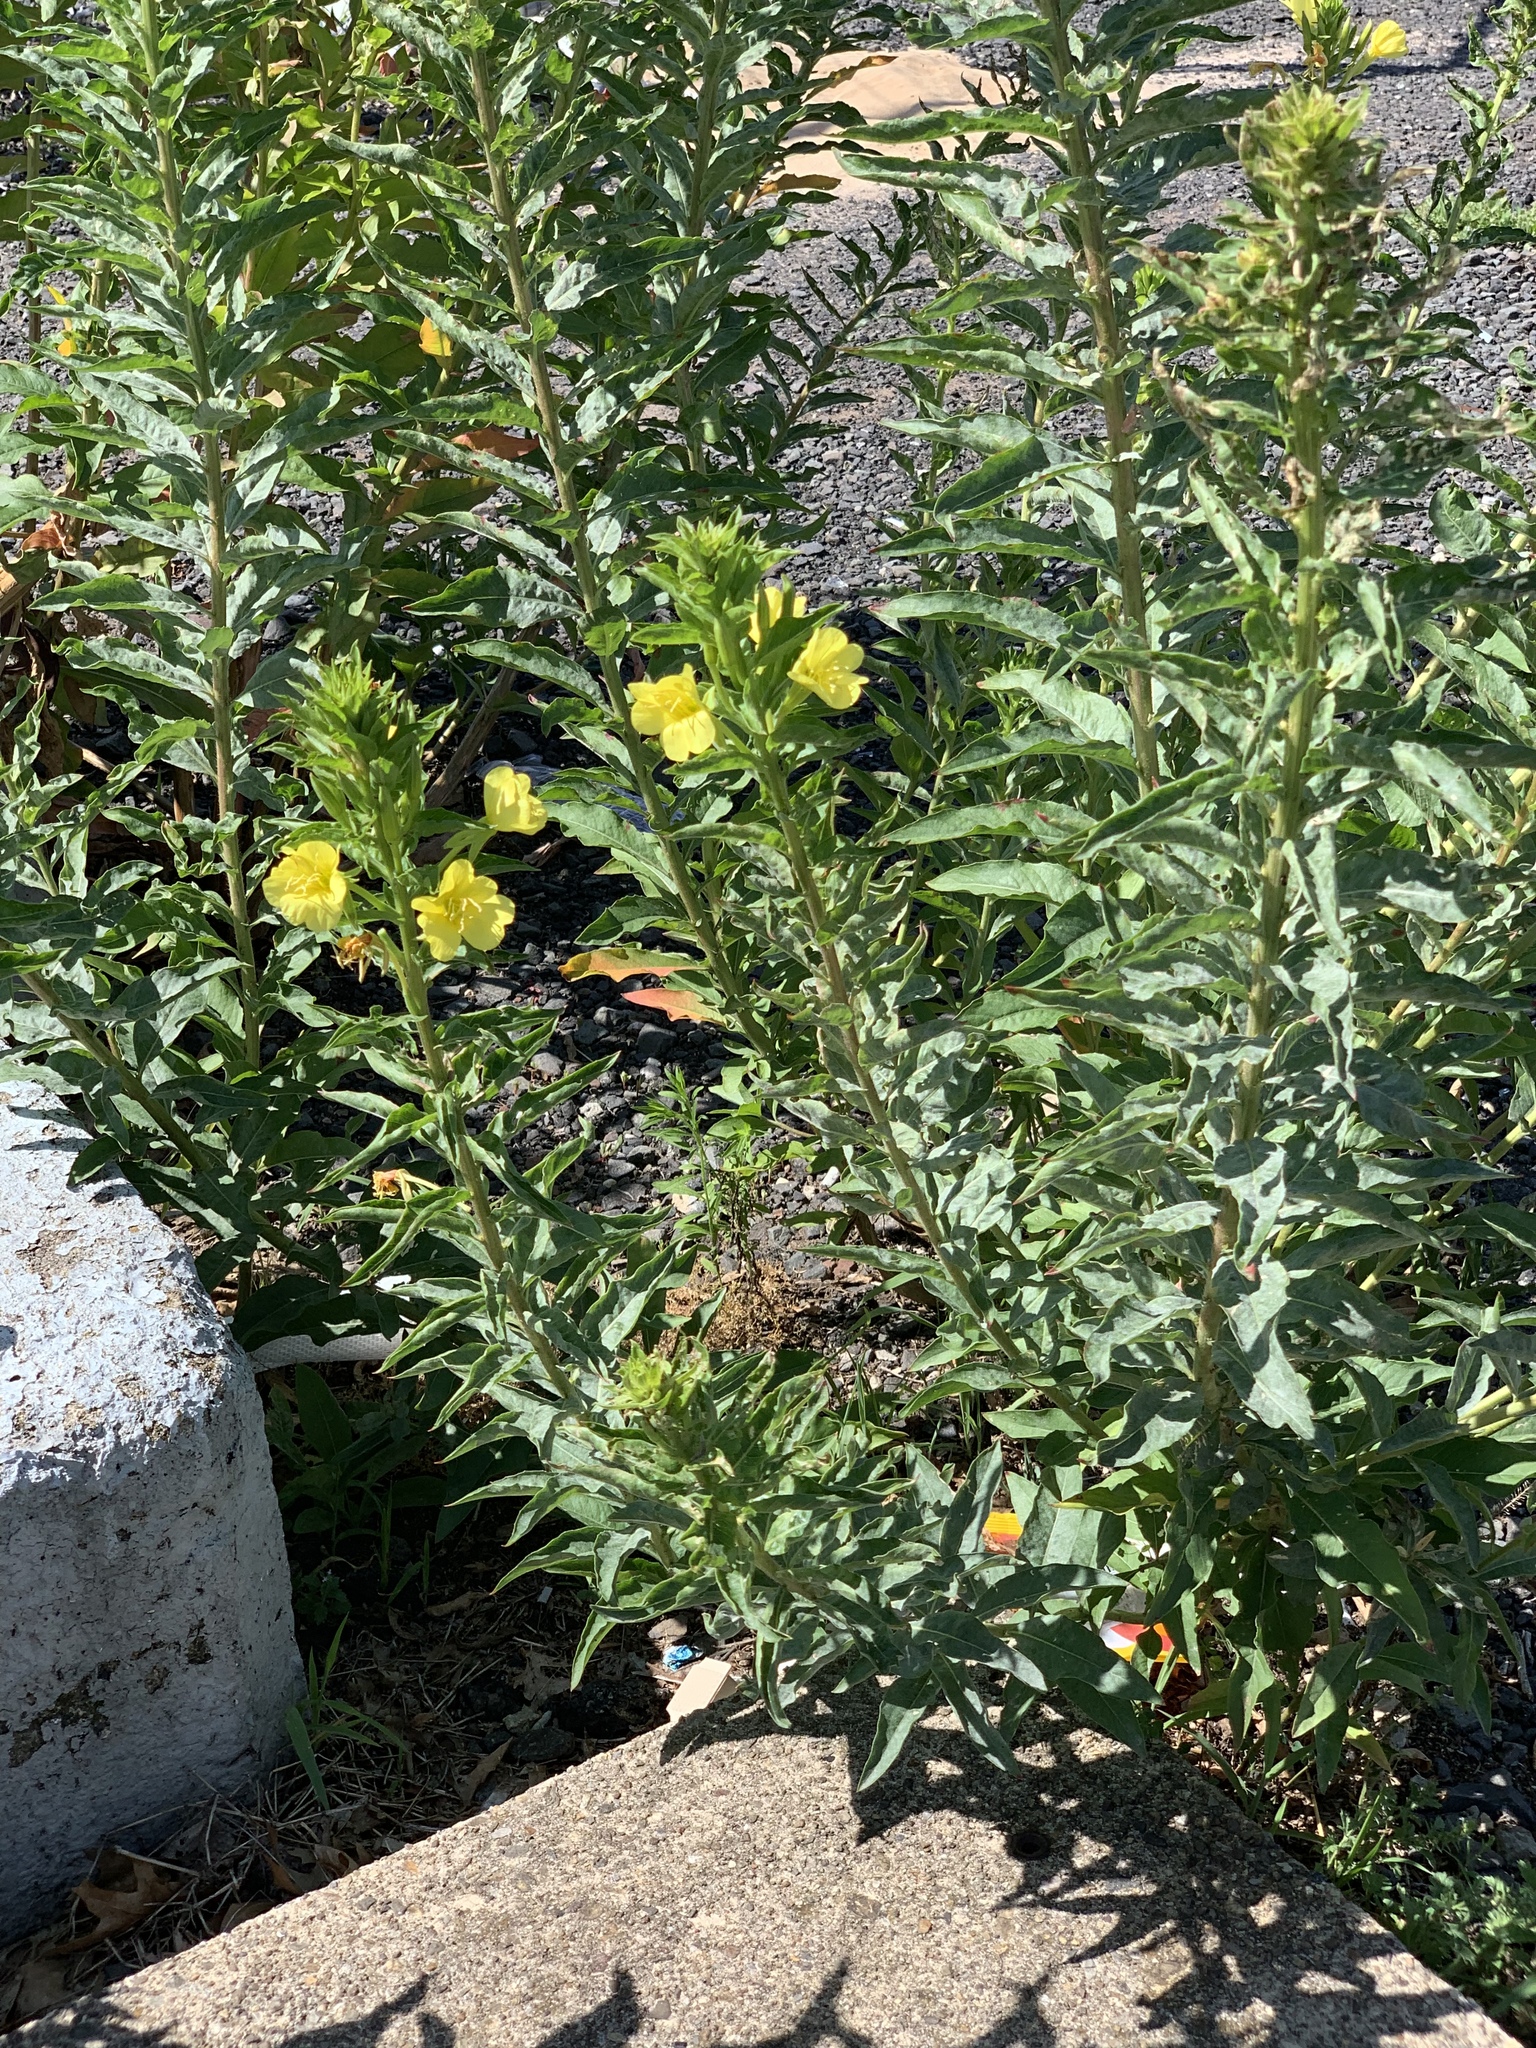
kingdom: Plantae
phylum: Tracheophyta
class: Magnoliopsida
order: Myrtales
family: Onagraceae
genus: Oenothera
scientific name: Oenothera biennis
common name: Common evening-primrose
